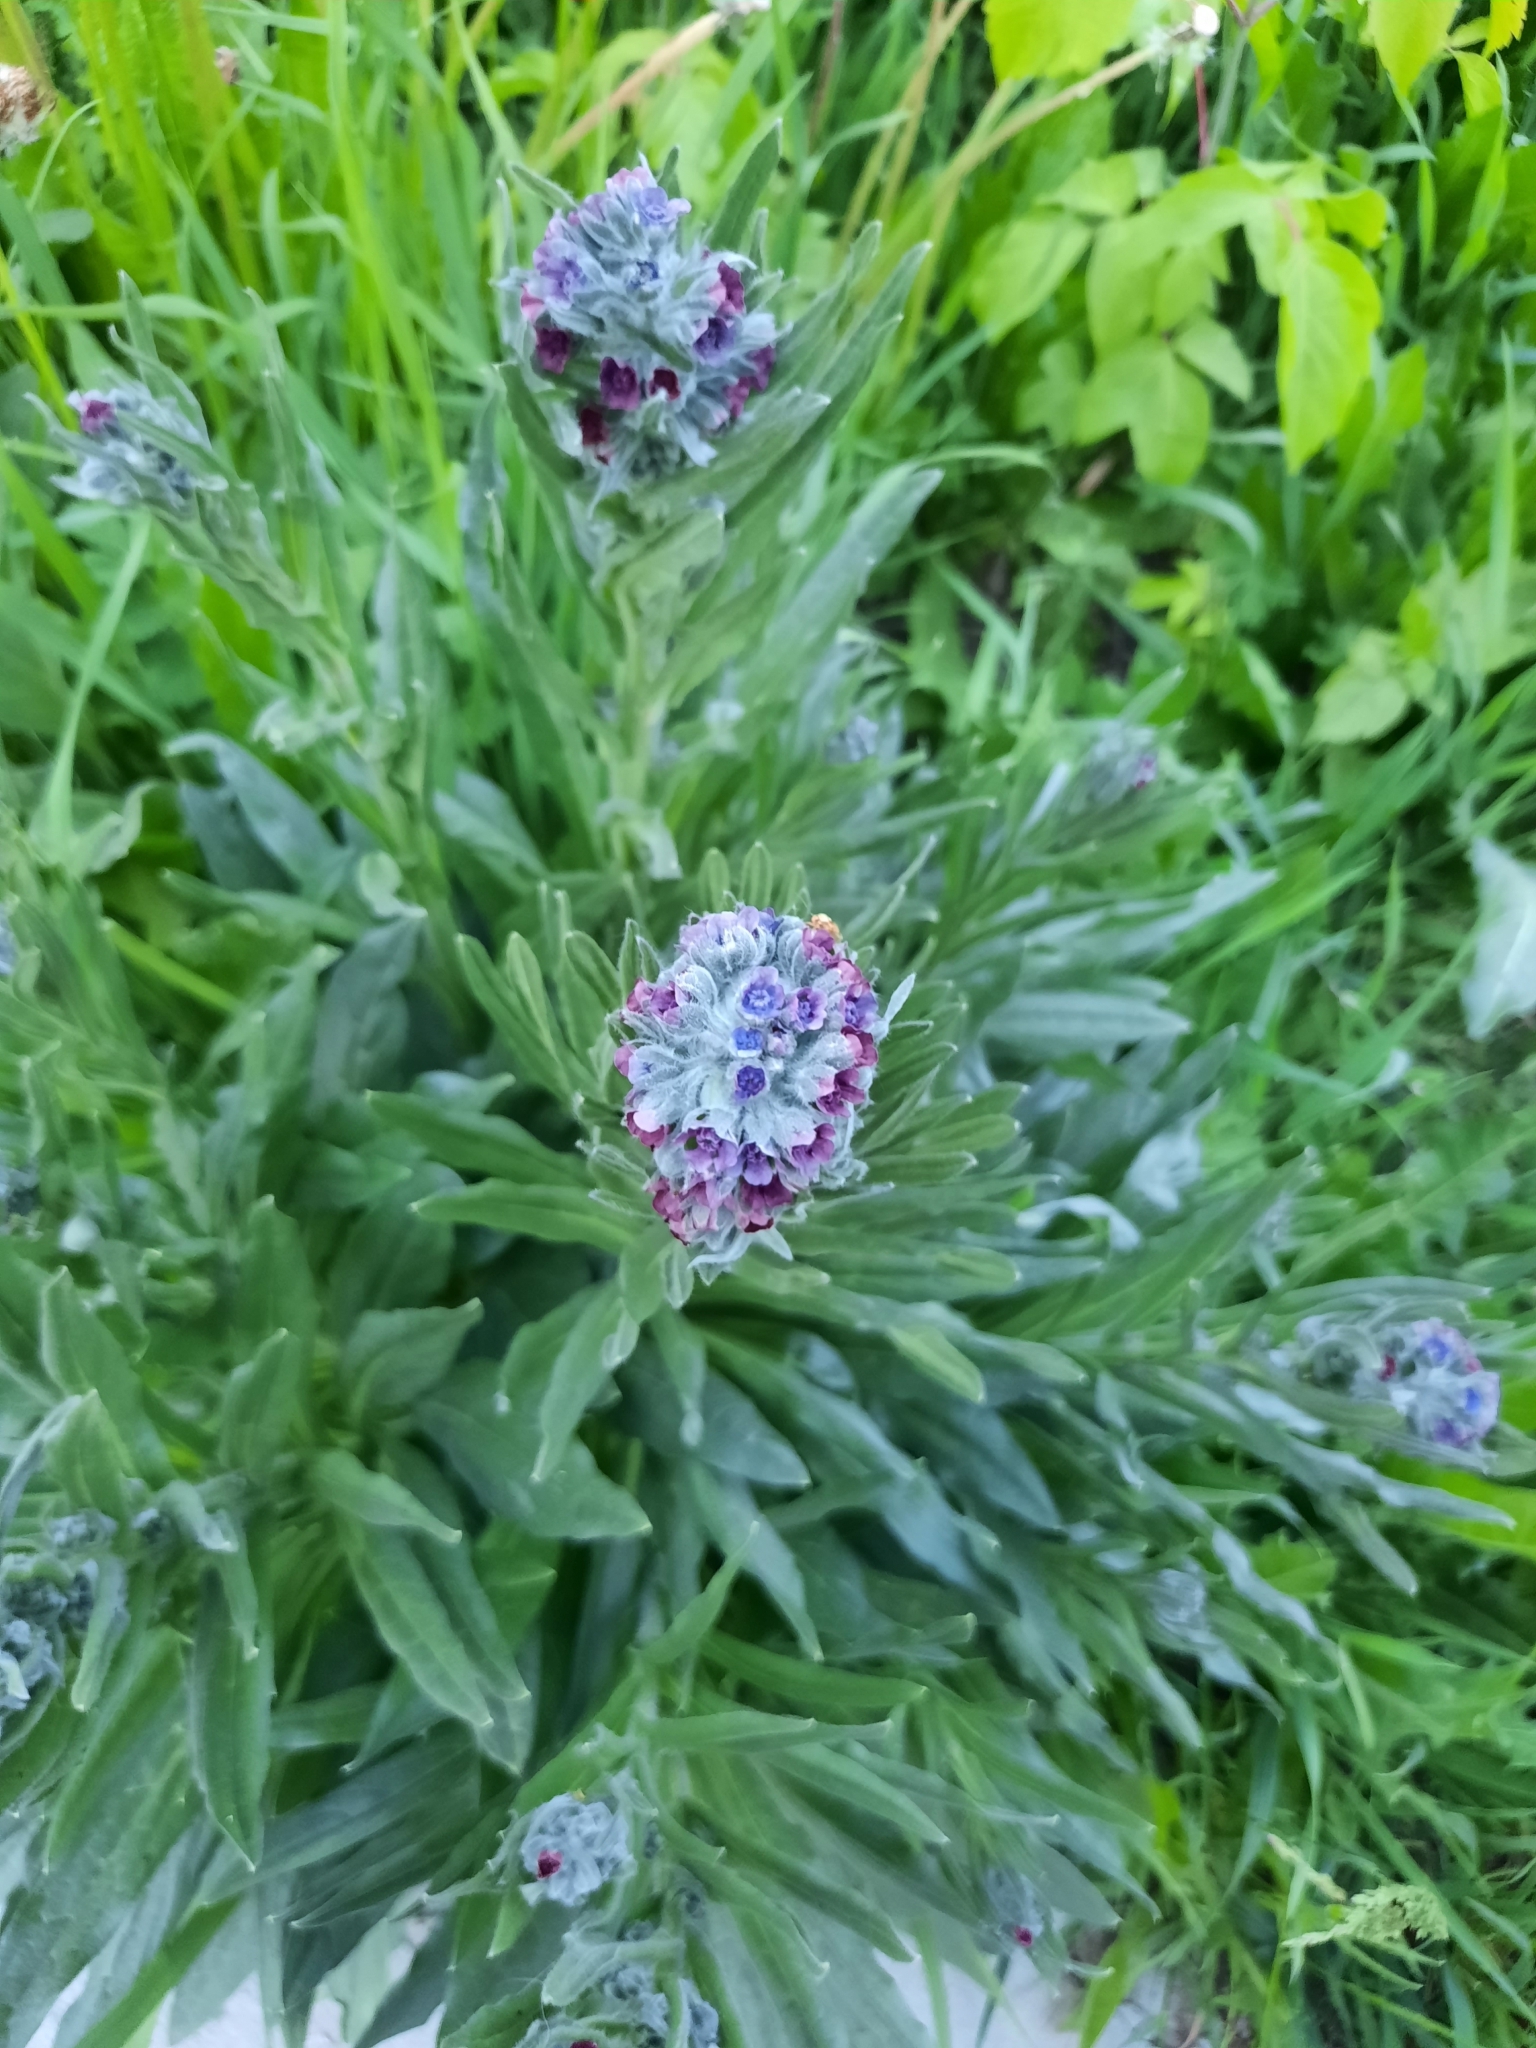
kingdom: Plantae
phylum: Tracheophyta
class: Magnoliopsida
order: Boraginales
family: Boraginaceae
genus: Cynoglossum
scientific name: Cynoglossum officinale
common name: Hound's-tongue
